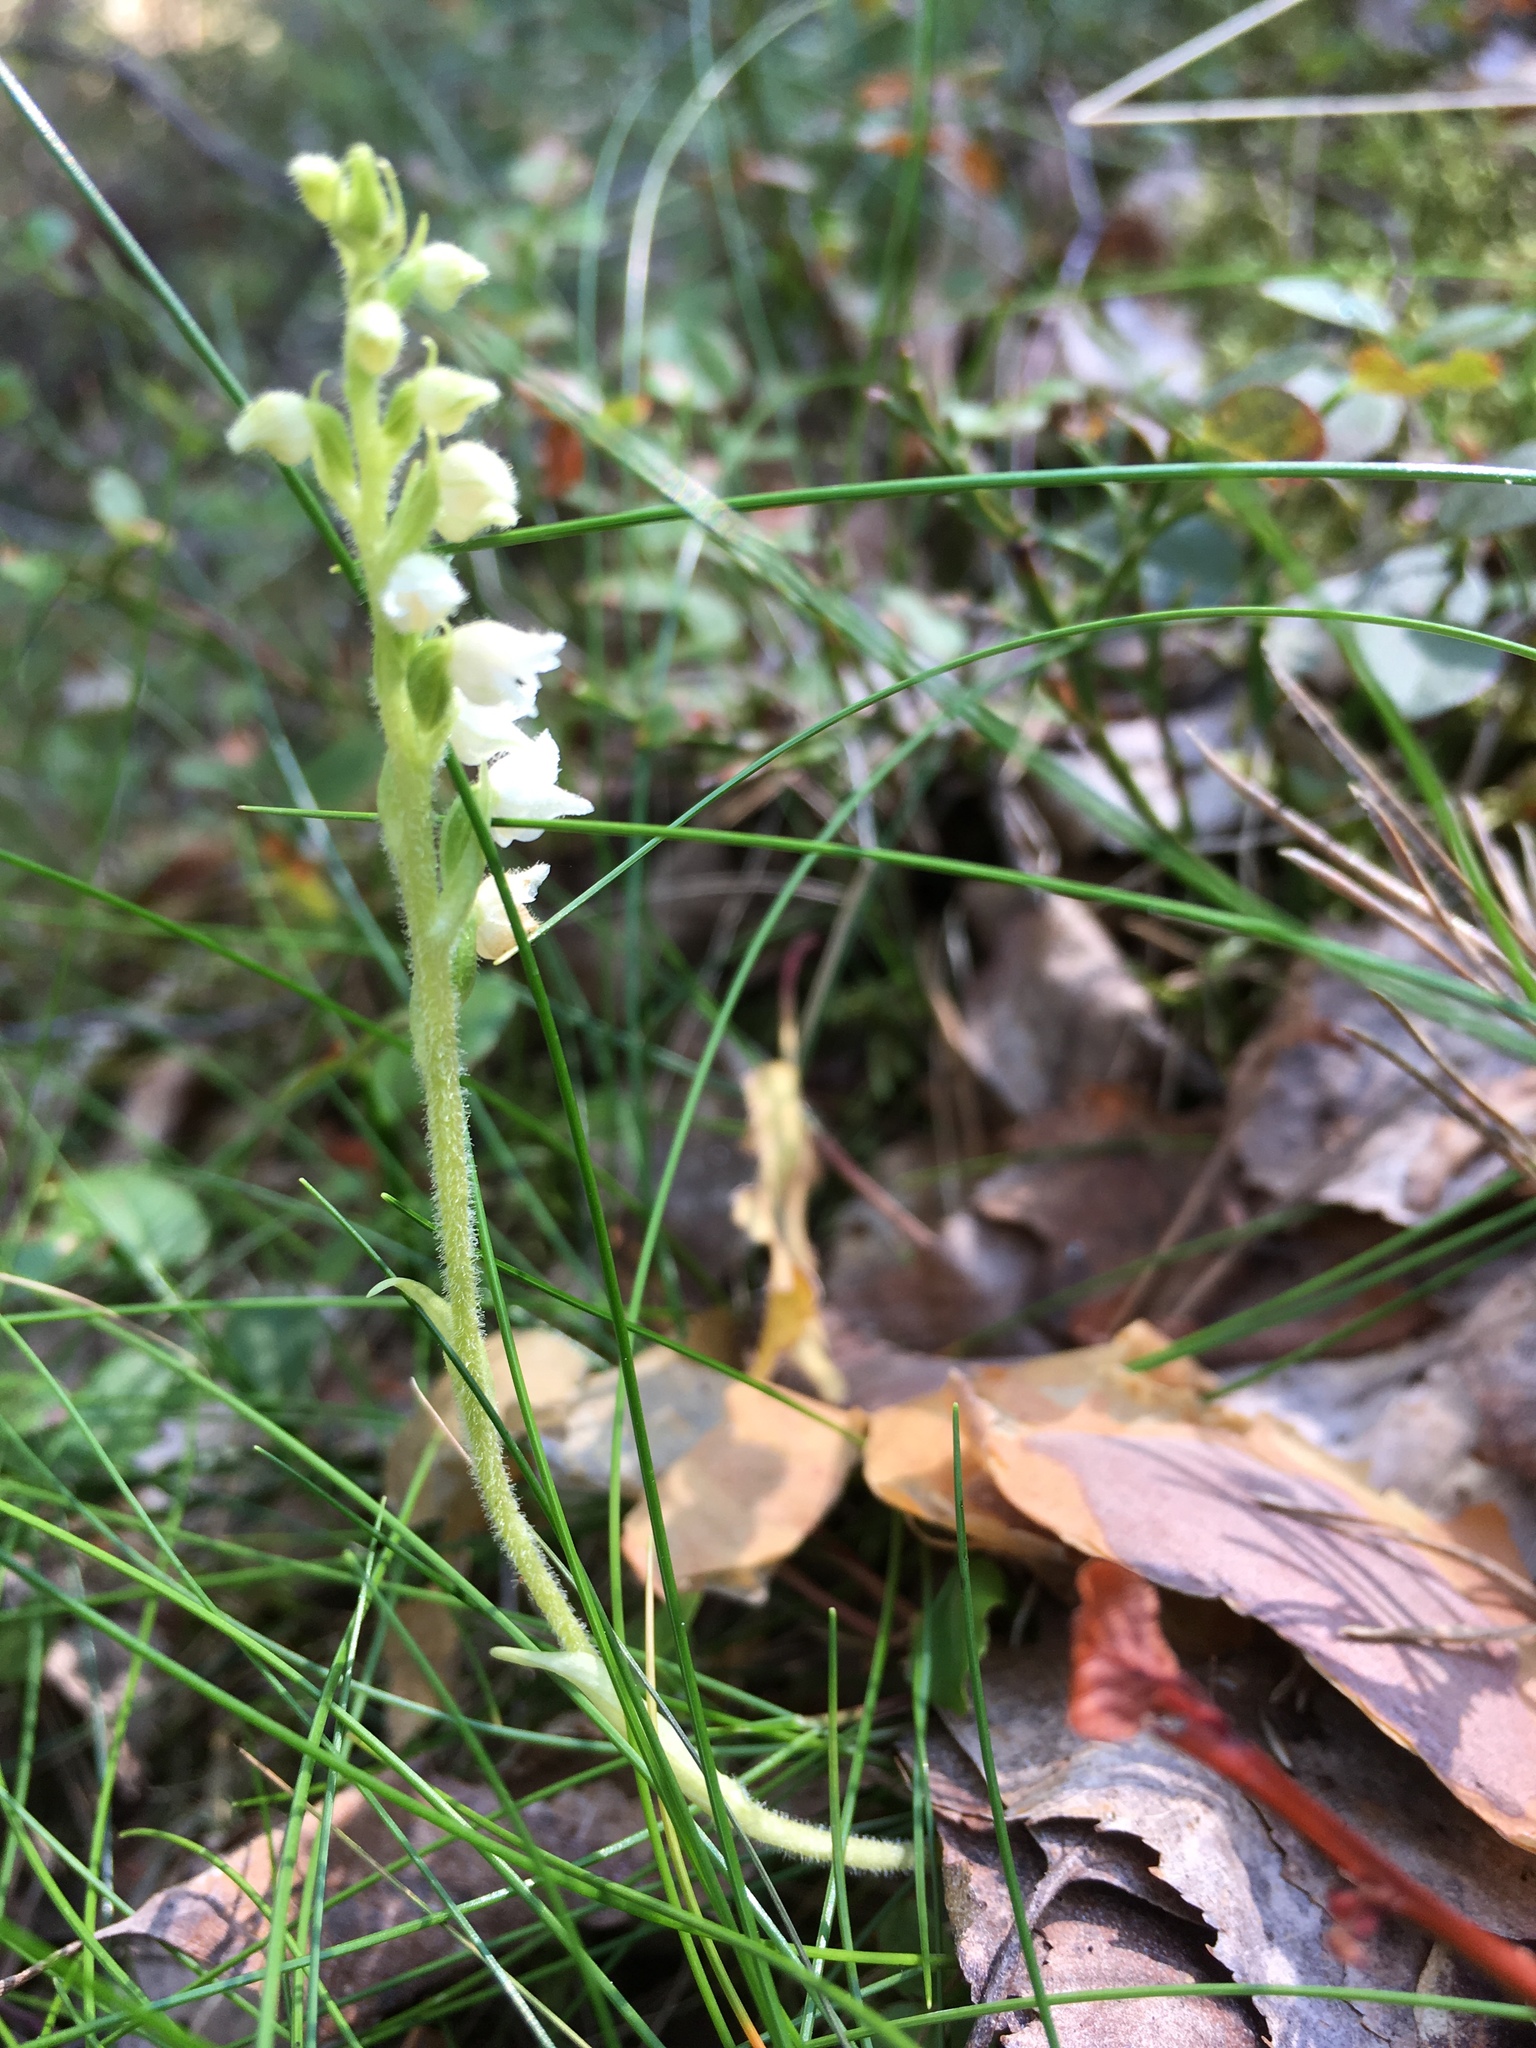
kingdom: Plantae
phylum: Tracheophyta
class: Liliopsida
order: Asparagales
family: Orchidaceae
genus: Goodyera
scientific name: Goodyera repens
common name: Creeping lady's-tresses
